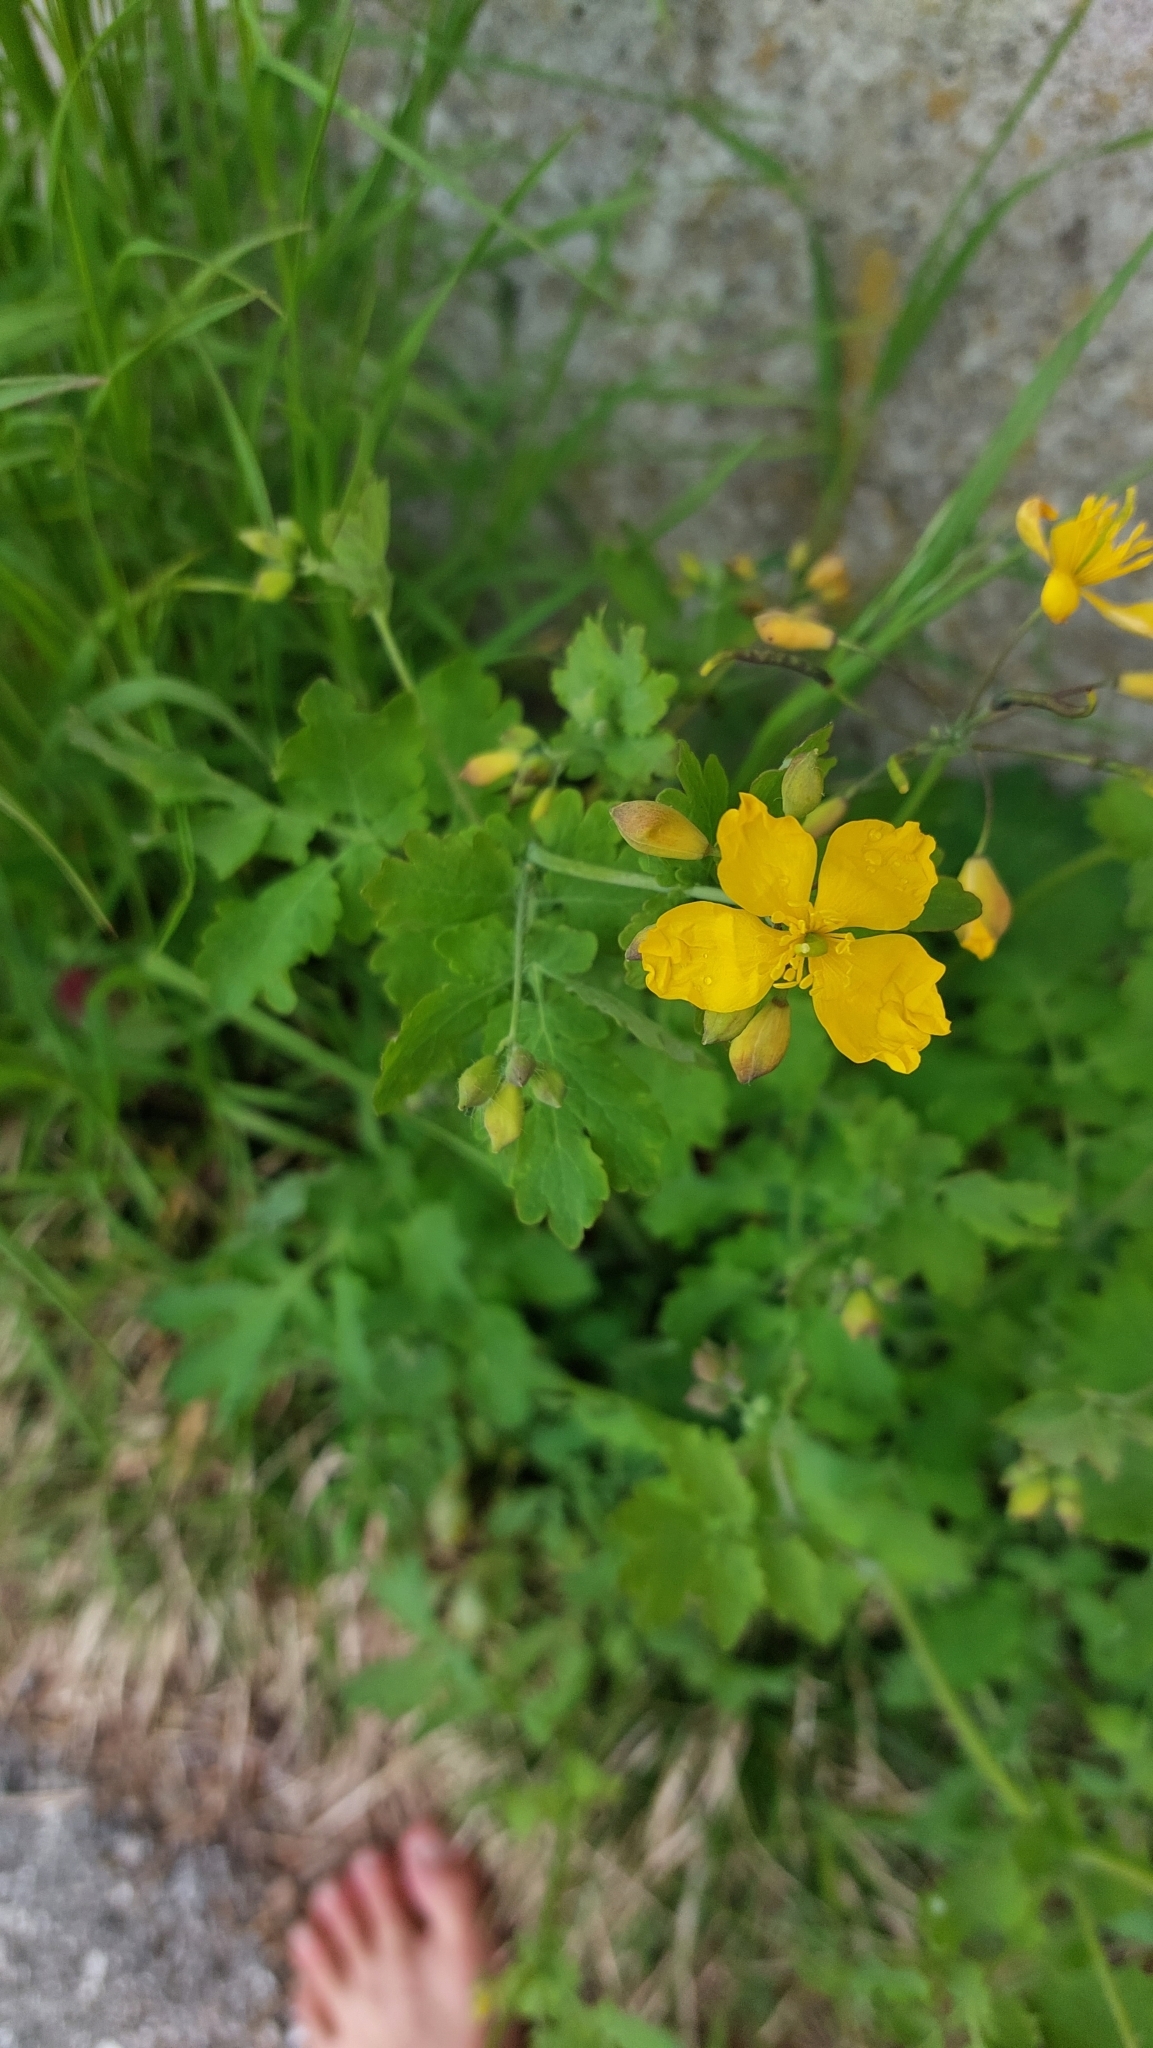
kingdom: Plantae
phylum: Tracheophyta
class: Magnoliopsida
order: Ranunculales
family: Papaveraceae
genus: Chelidonium
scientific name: Chelidonium majus
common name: Greater celandine
